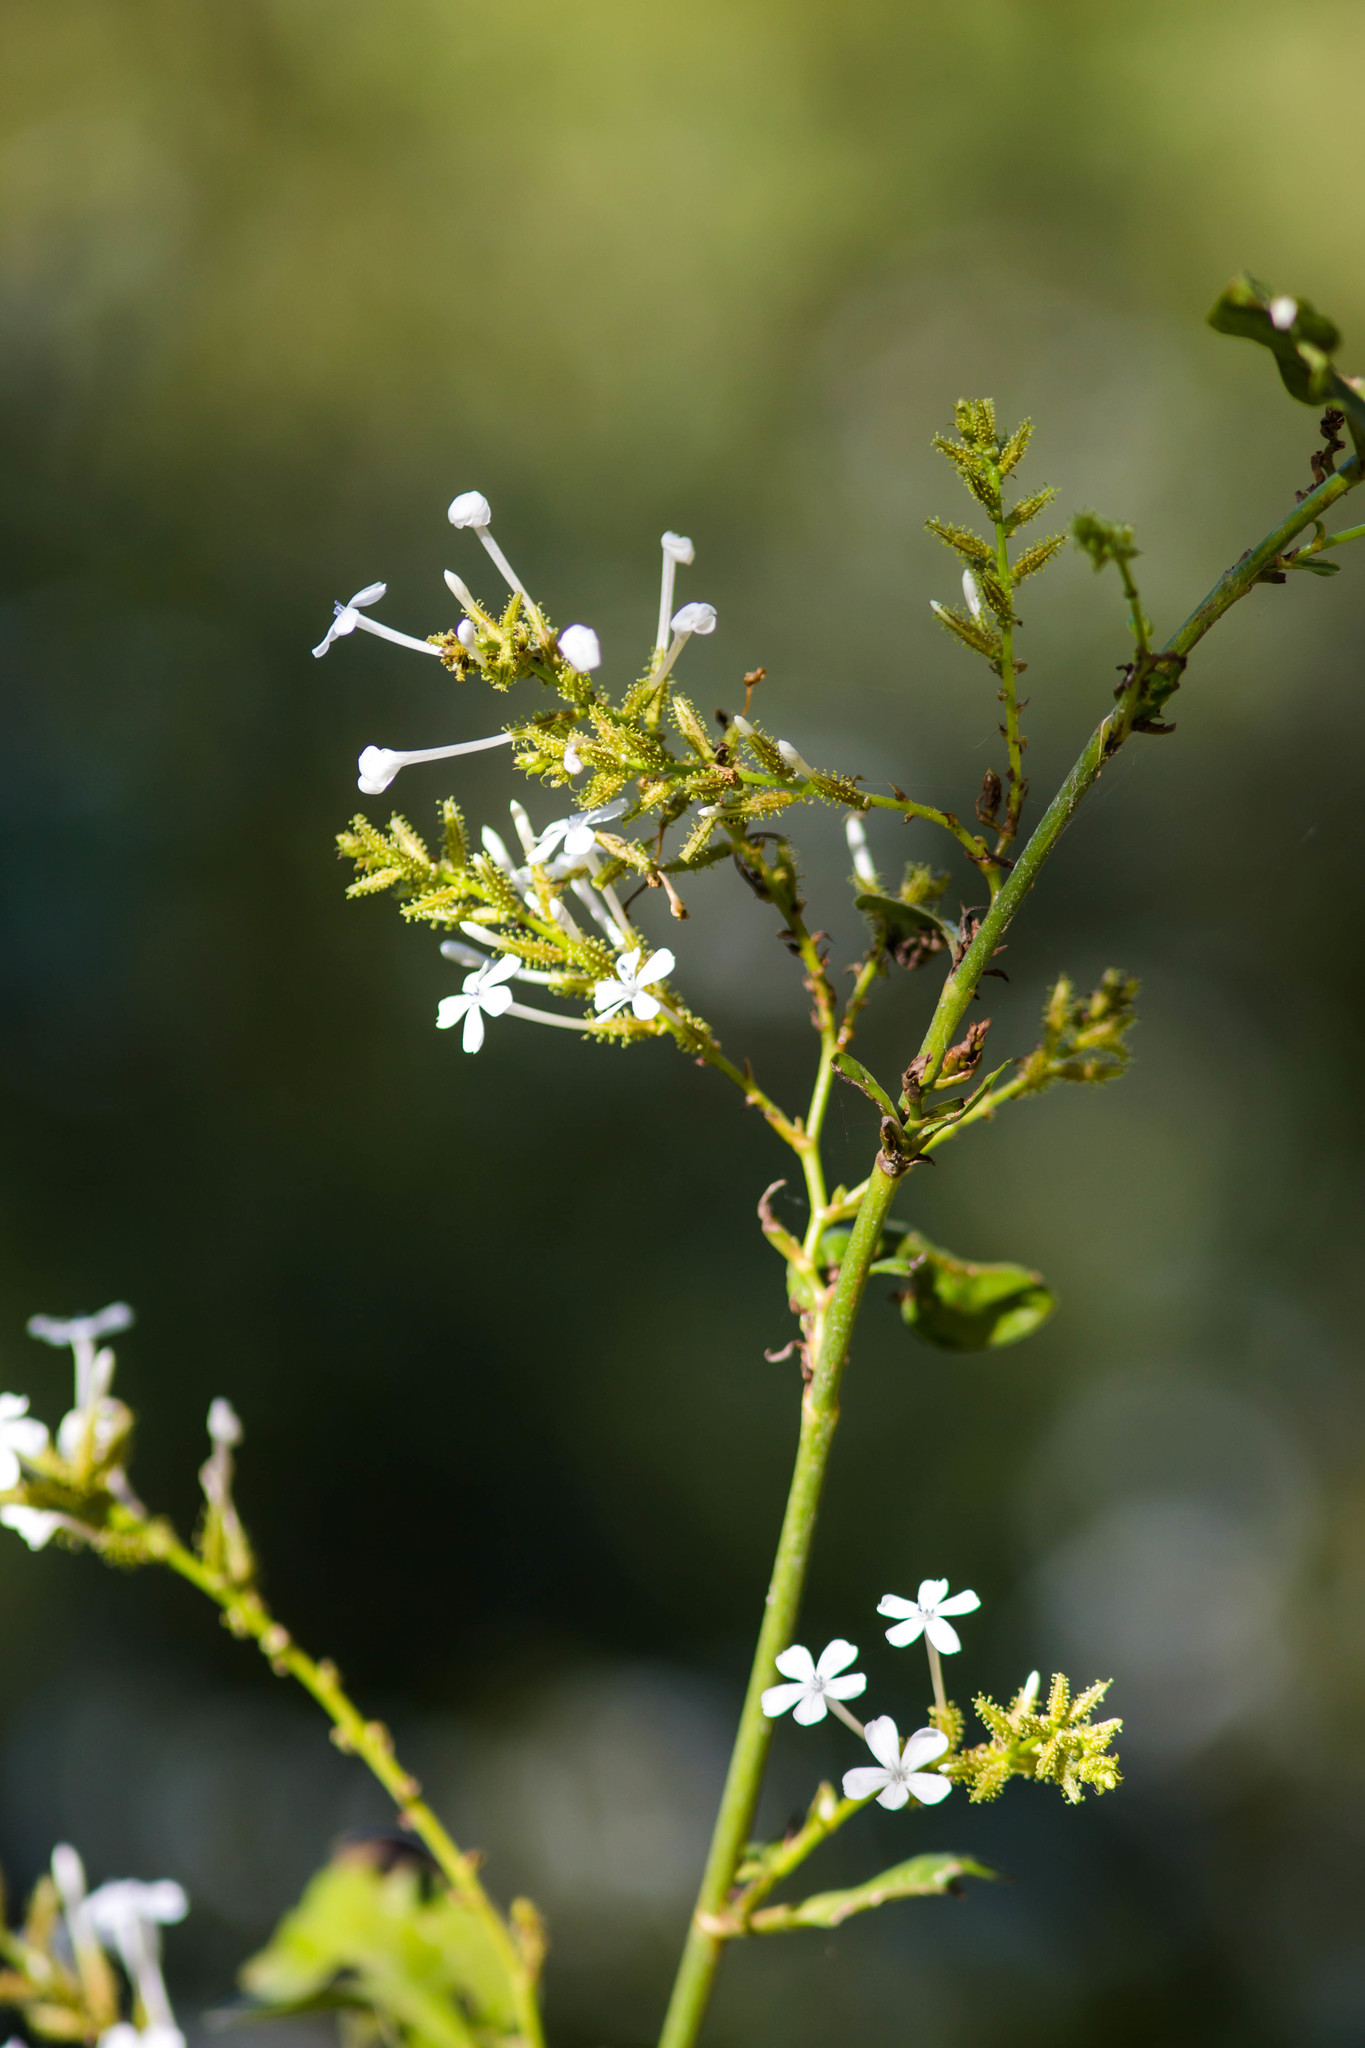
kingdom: Plantae
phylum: Tracheophyta
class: Magnoliopsida
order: Caryophyllales
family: Plumbaginaceae
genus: Plumbago
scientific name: Plumbago zeylanica
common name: Doctorbush
